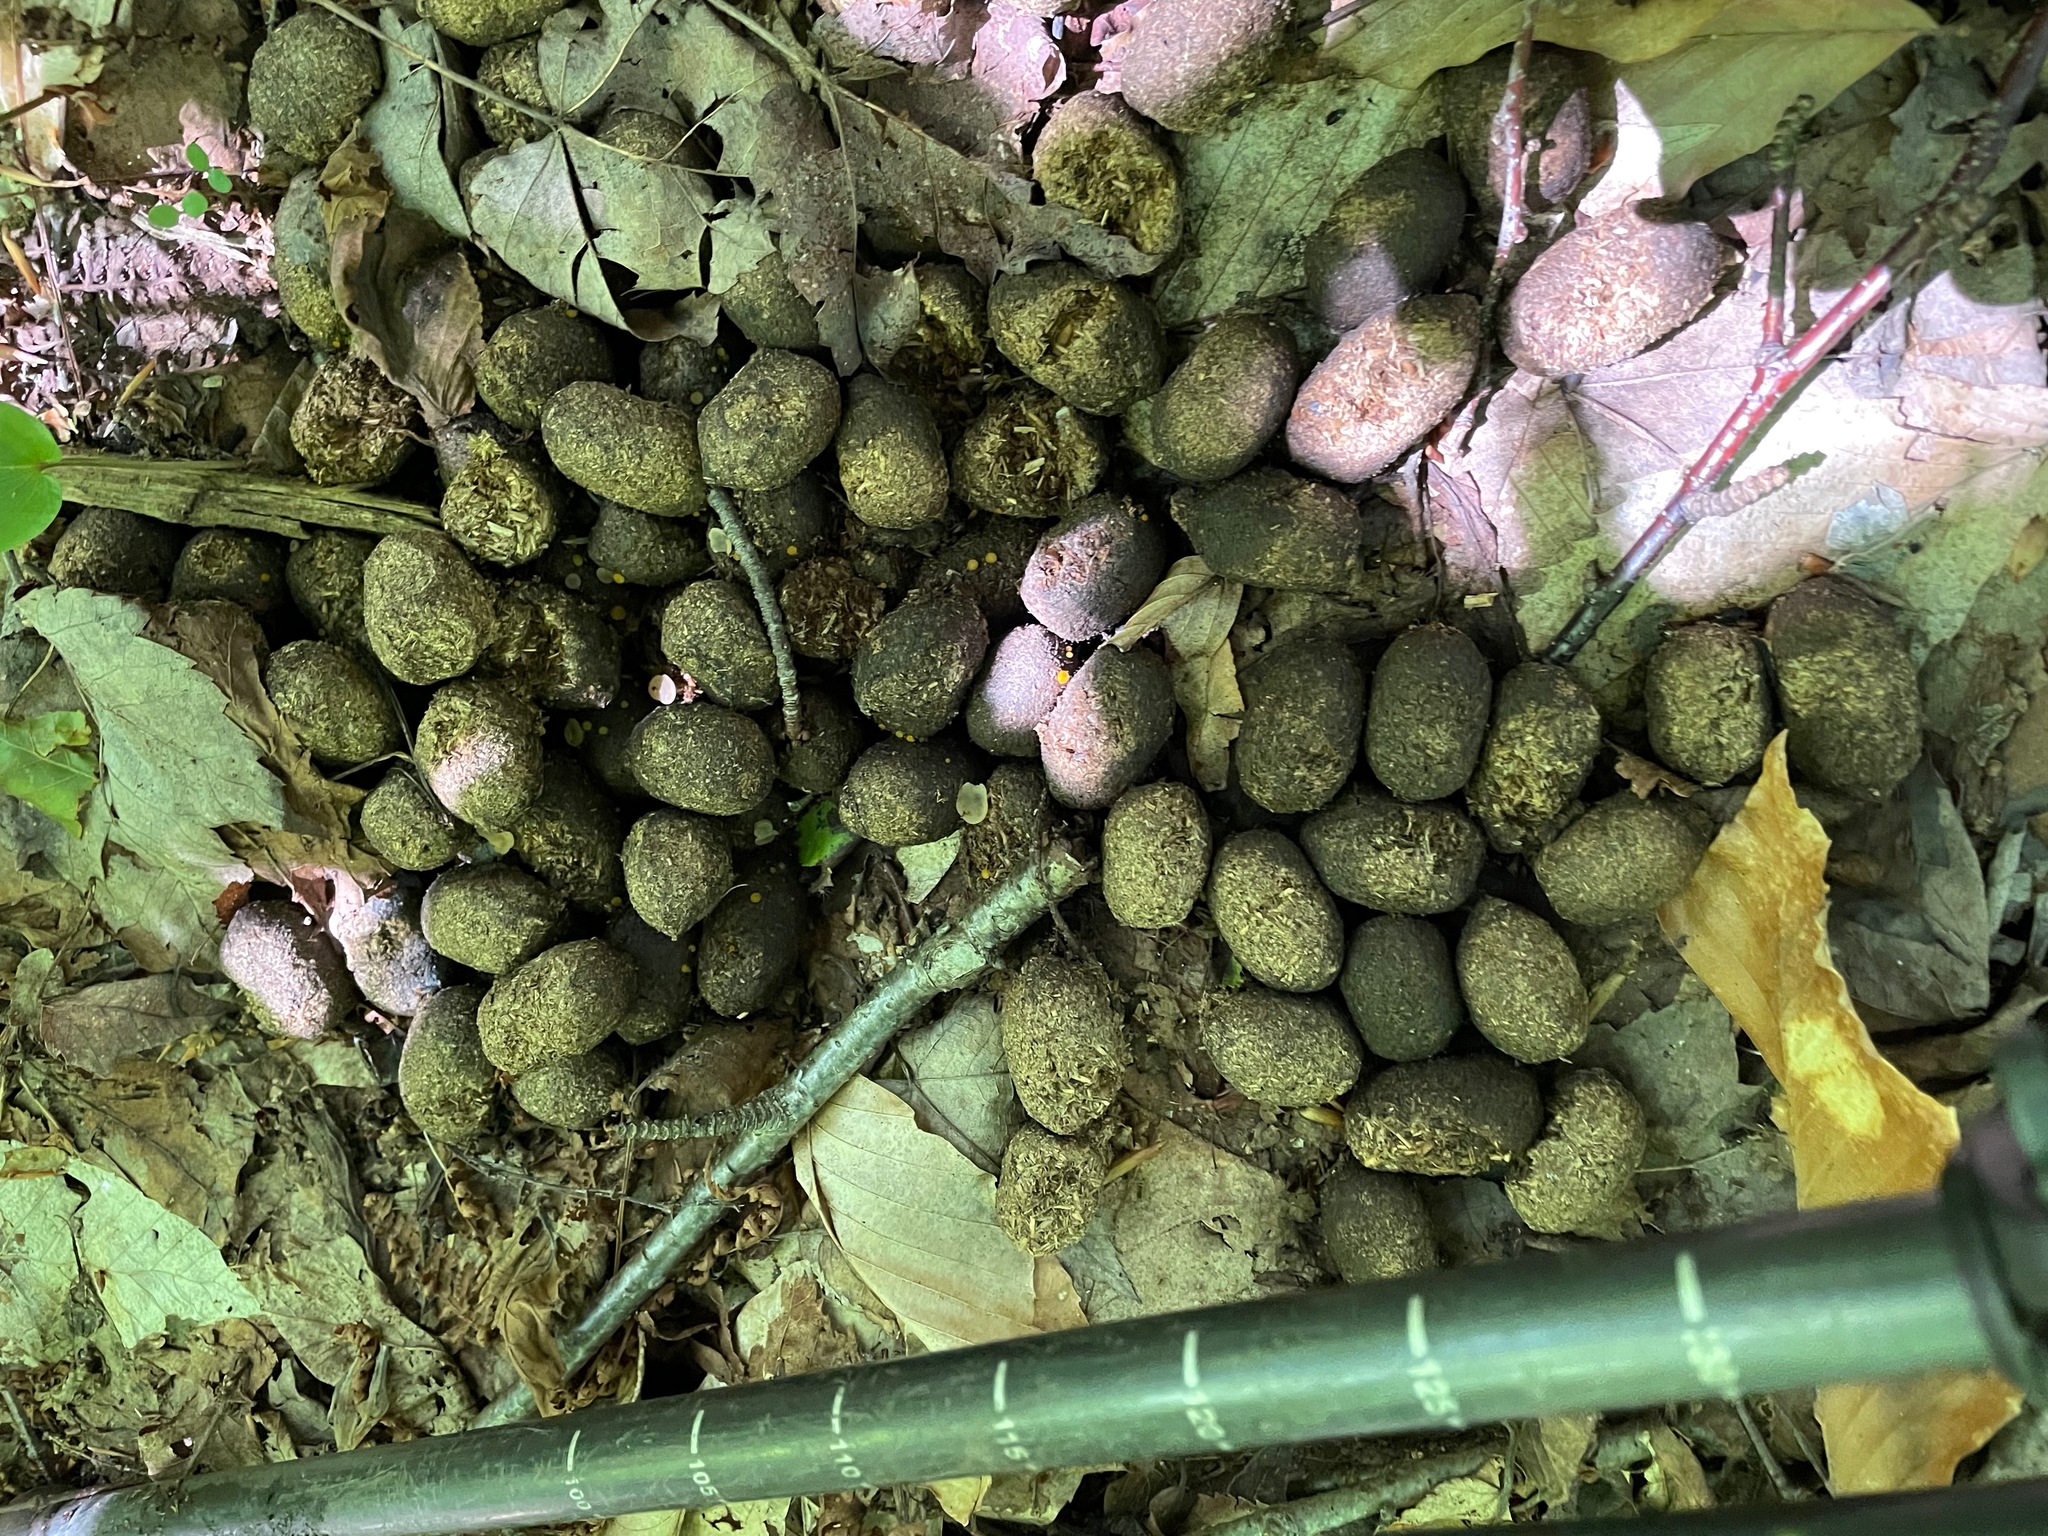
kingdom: Animalia
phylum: Chordata
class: Mammalia
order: Artiodactyla
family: Cervidae
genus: Alces
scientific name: Alces alces
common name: Moose
